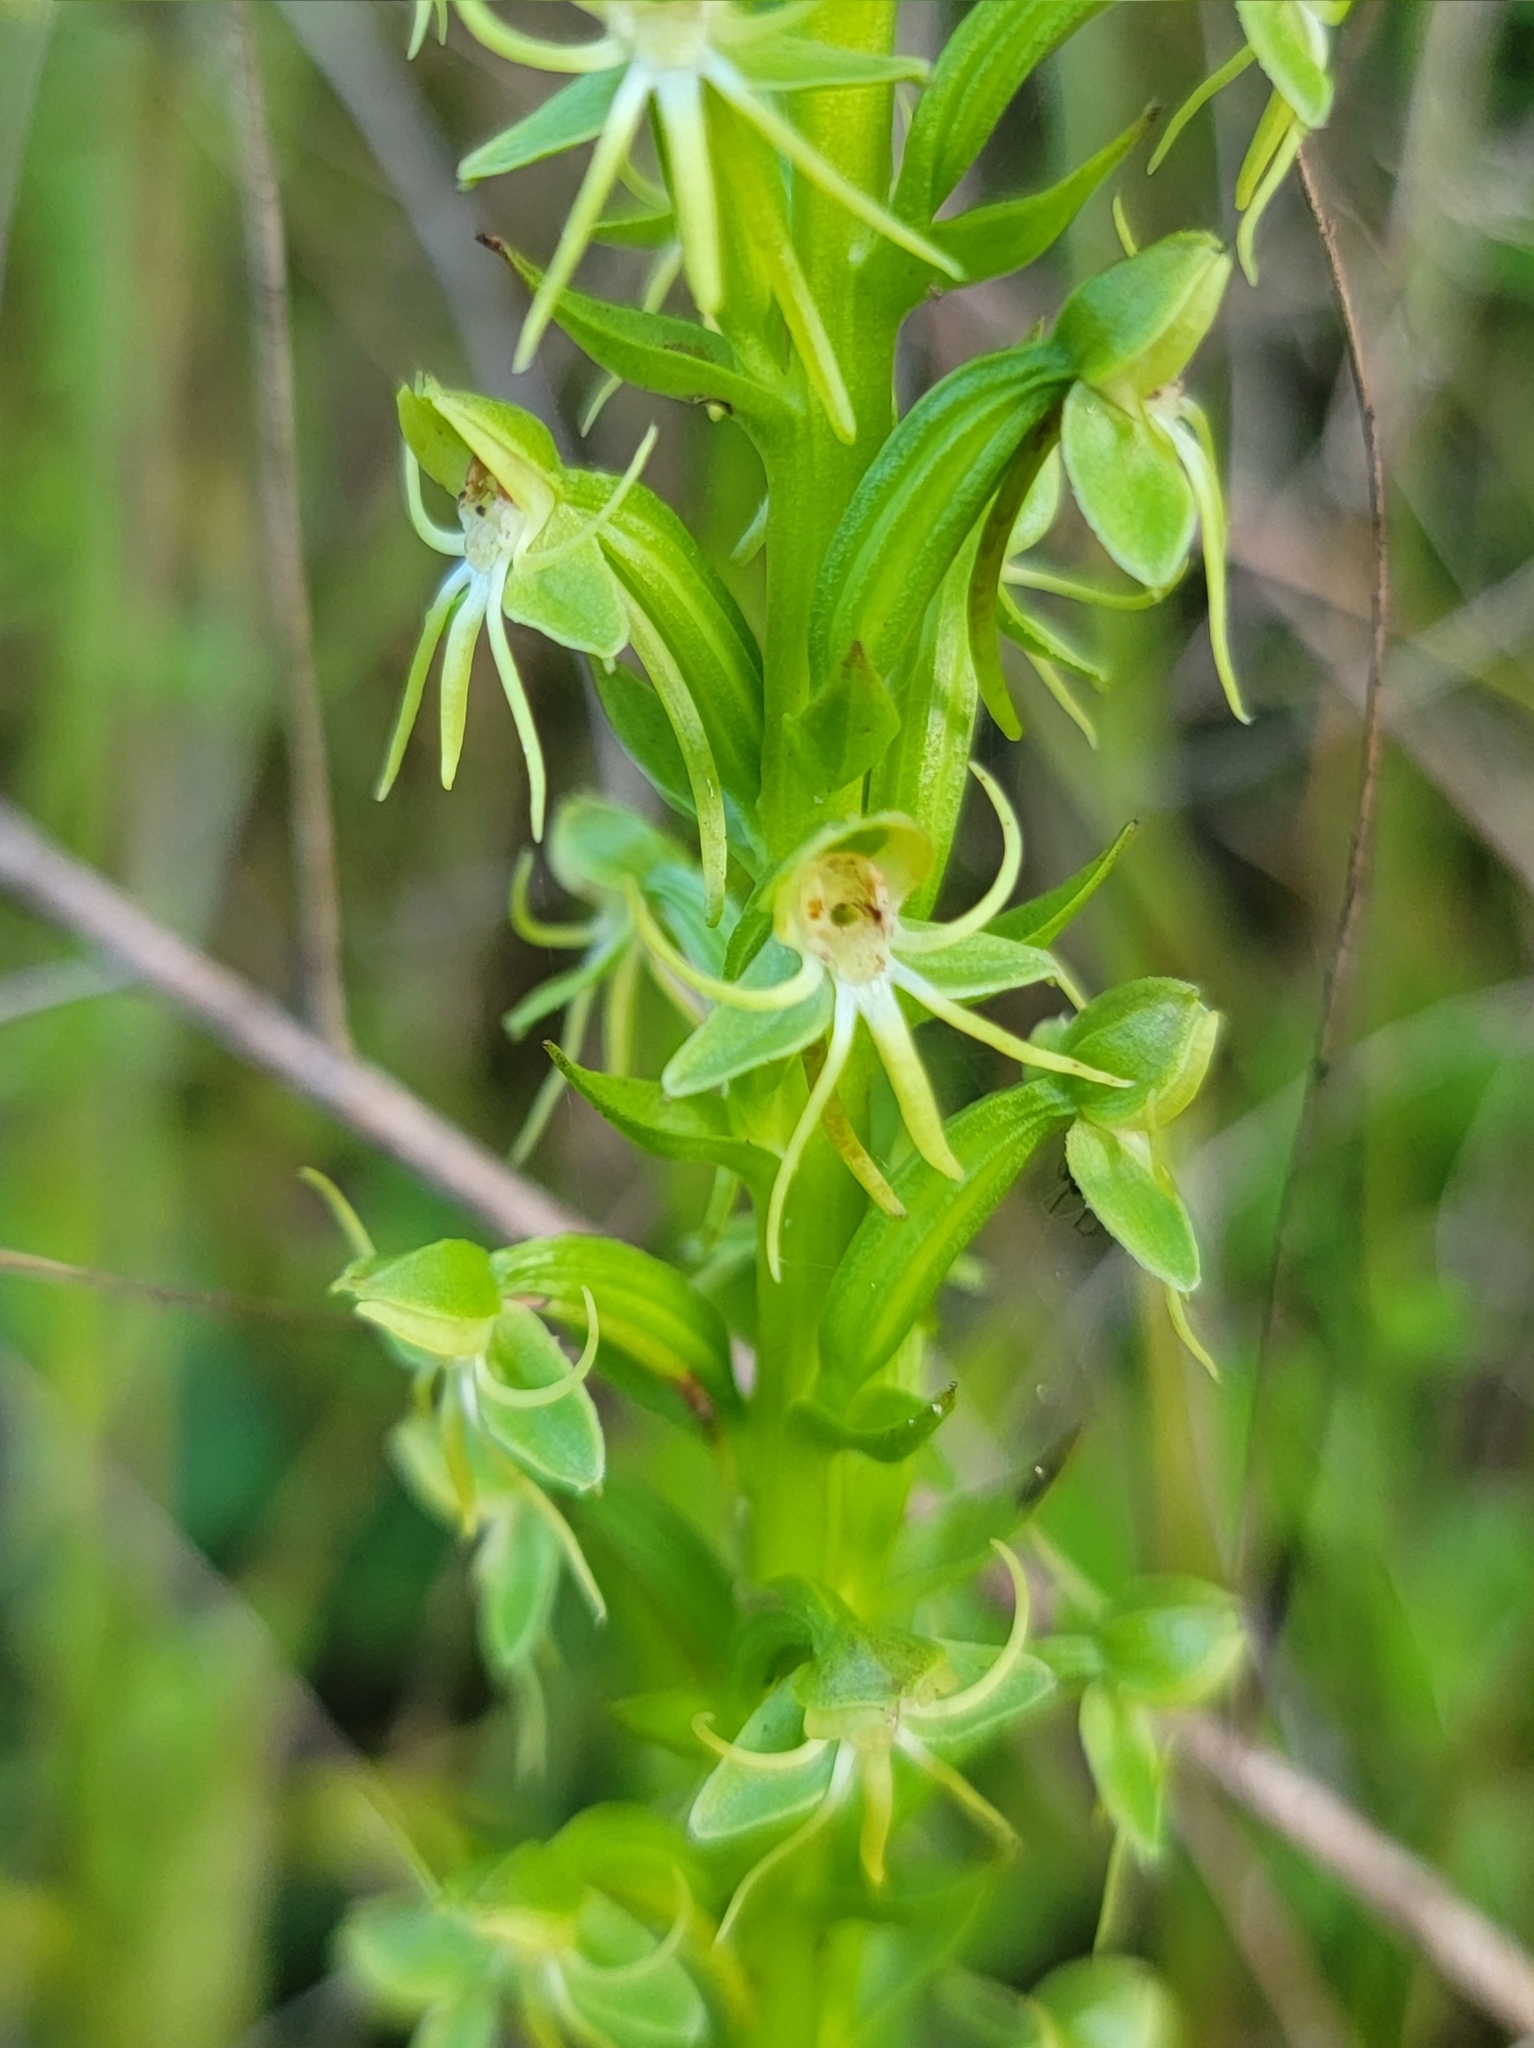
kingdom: Plantae
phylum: Tracheophyta
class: Liliopsida
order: Asparagales
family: Orchidaceae
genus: Habenaria
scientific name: Habenaria repens
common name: Water orchid
